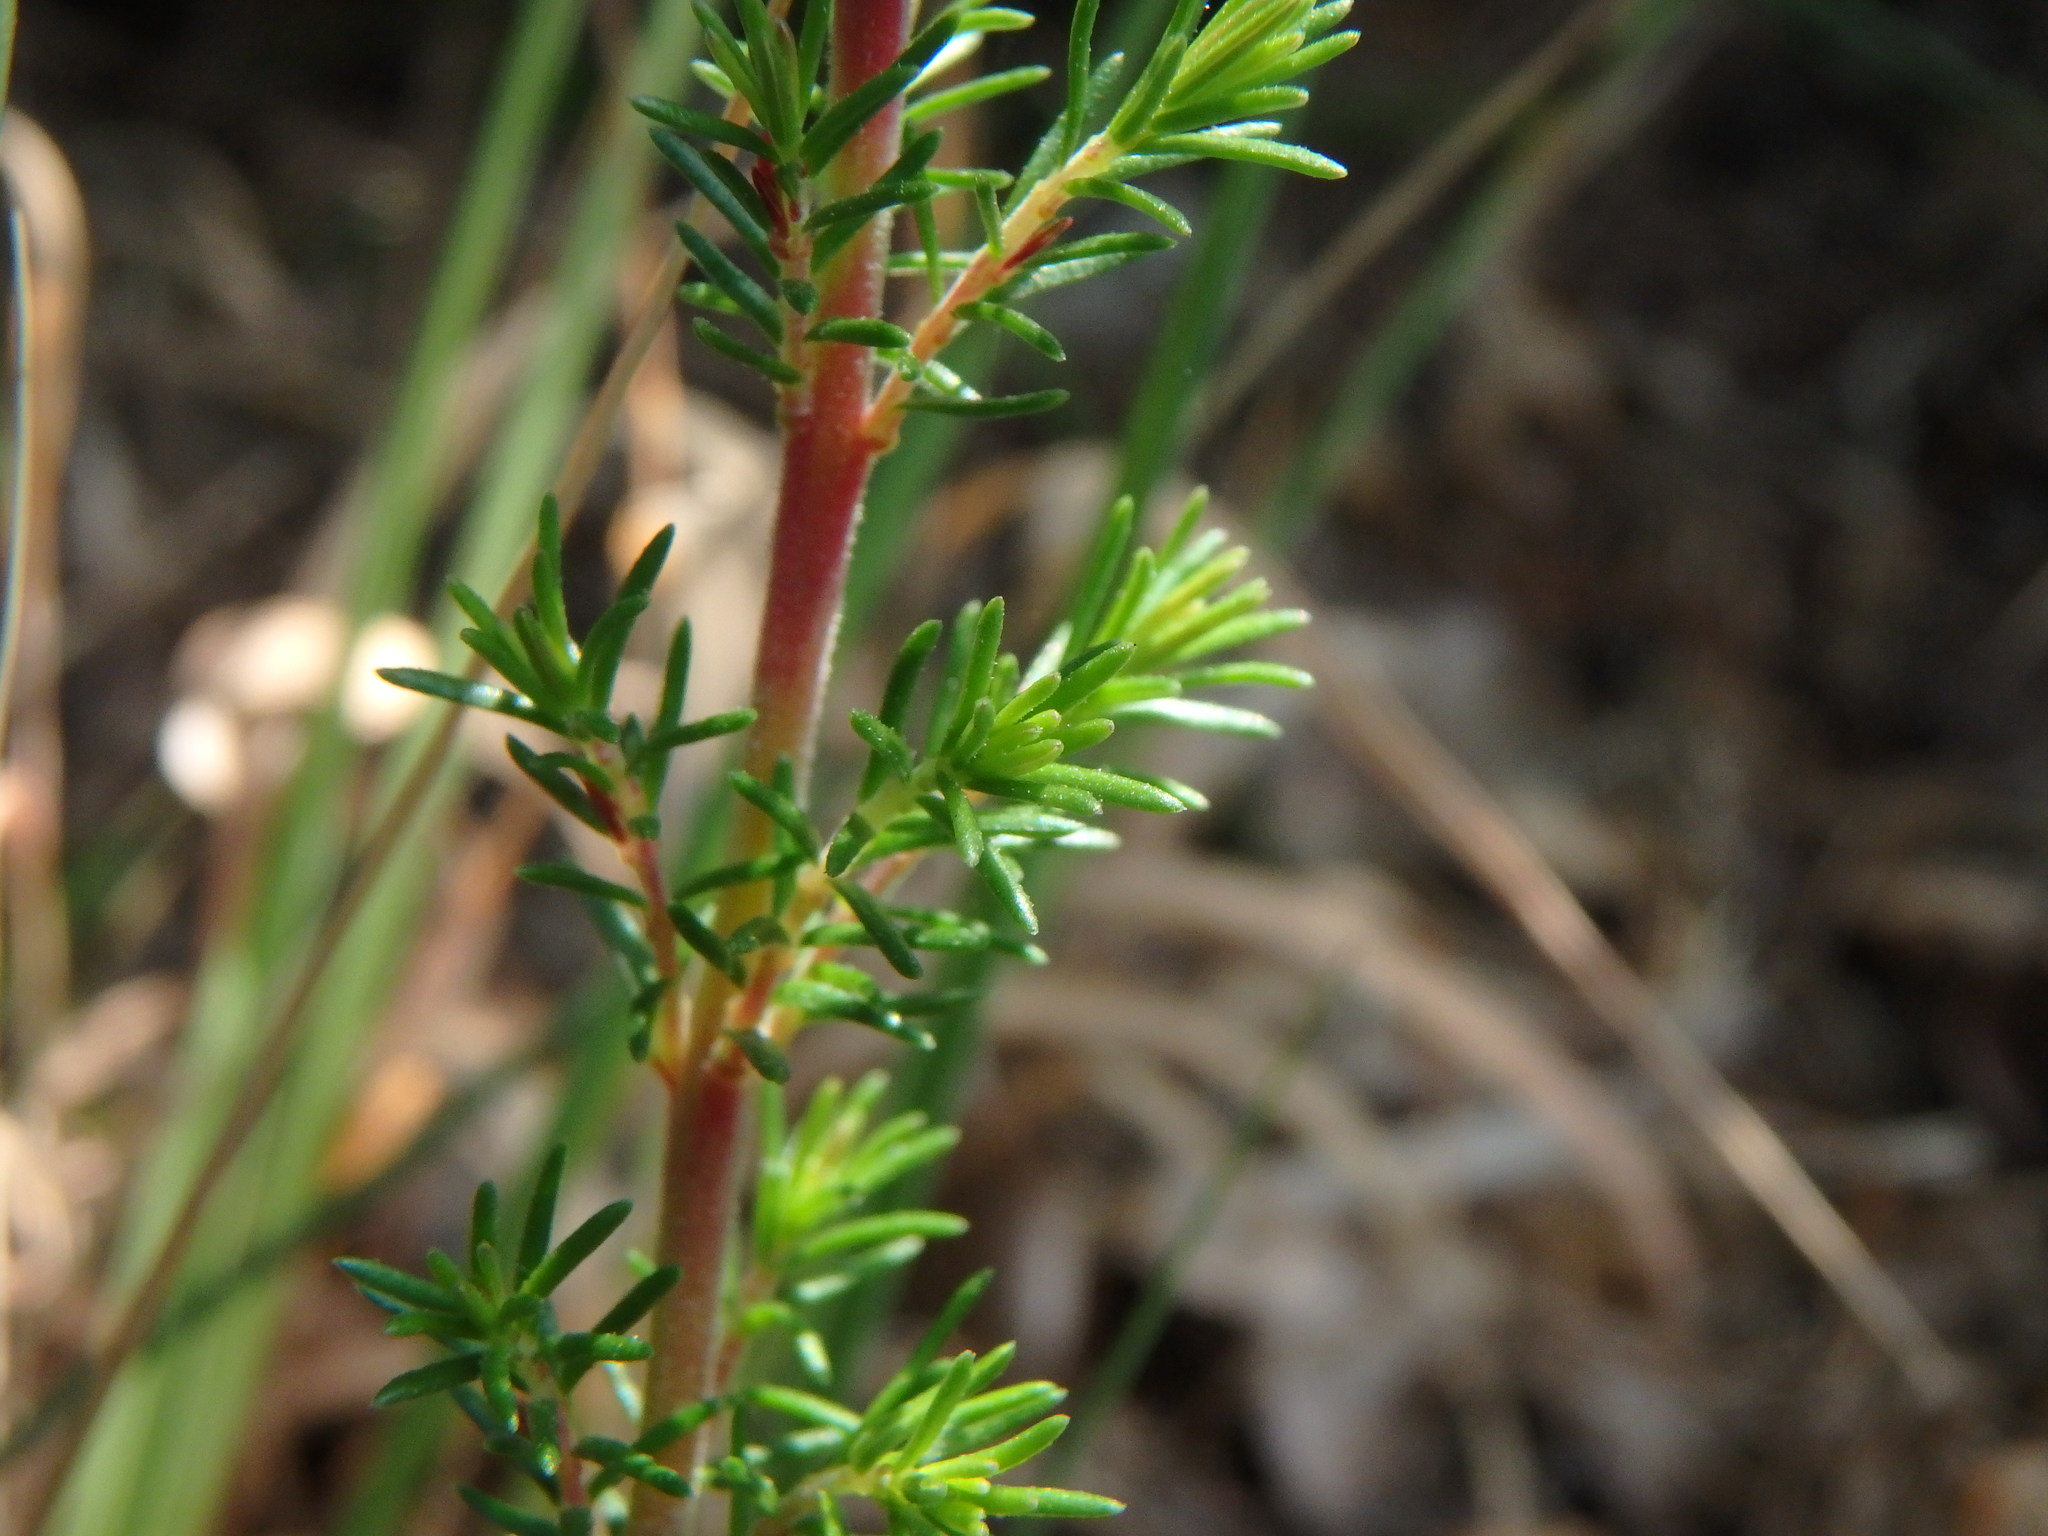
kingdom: Plantae
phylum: Tracheophyta
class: Magnoliopsida
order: Ericales
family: Ericaceae
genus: Erica
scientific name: Erica cinerea
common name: Bell heather
